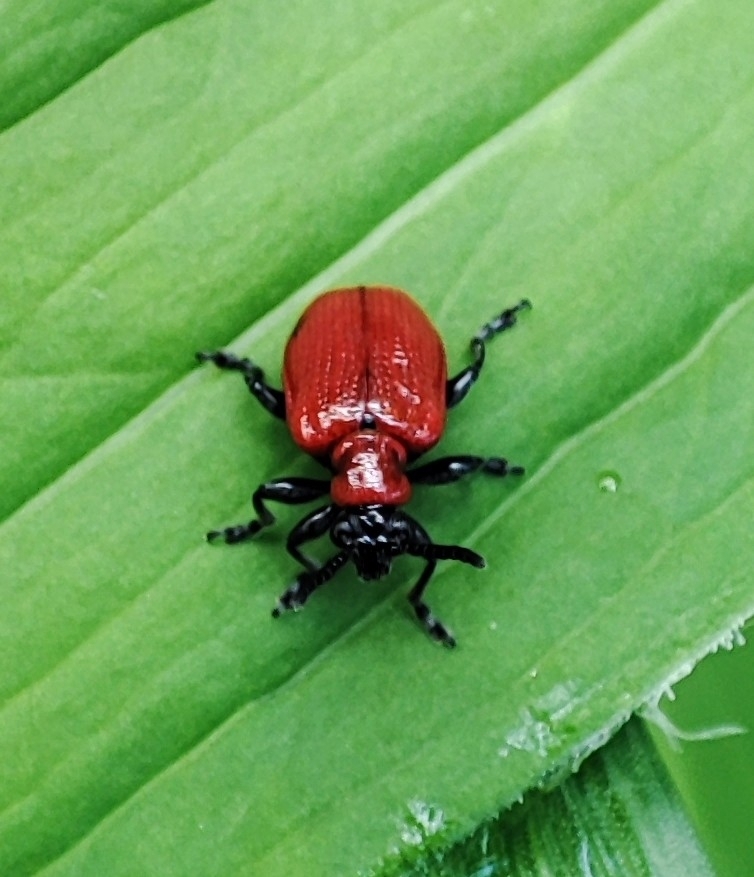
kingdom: Animalia
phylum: Arthropoda
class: Insecta
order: Coleoptera
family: Chrysomelidae
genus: Lilioceris
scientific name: Lilioceris lilii
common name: Lily beetle
